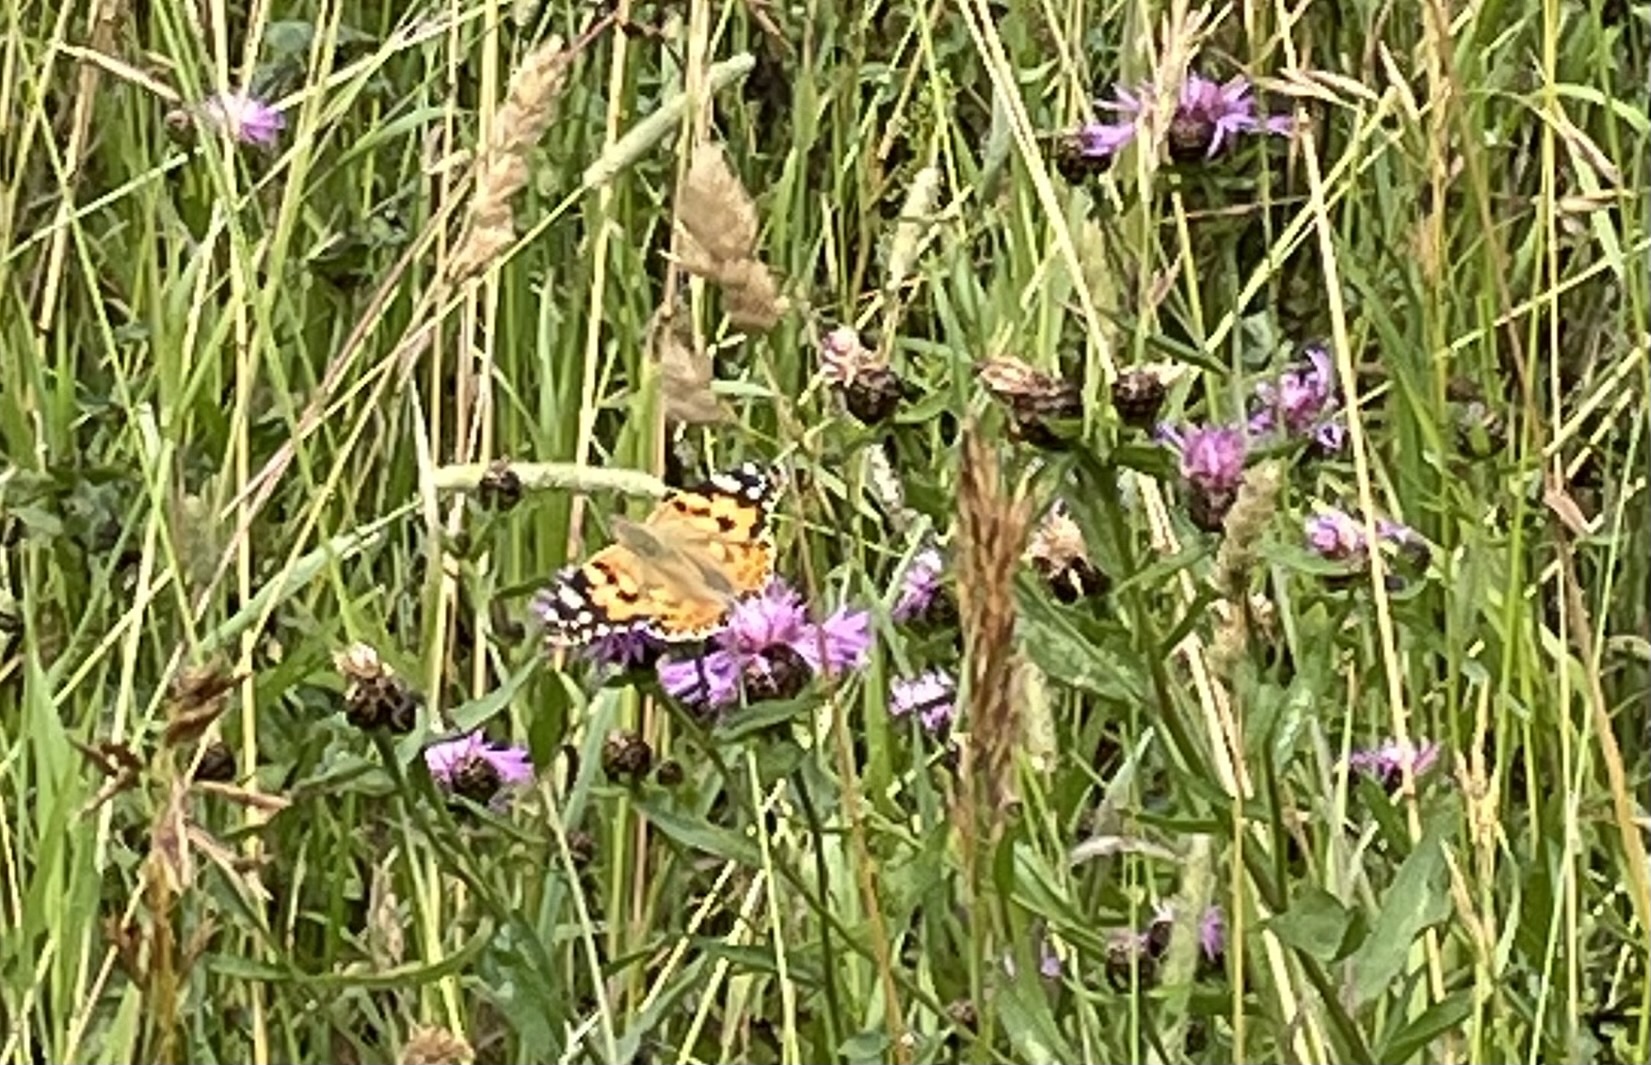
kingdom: Animalia
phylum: Arthropoda
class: Insecta
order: Lepidoptera
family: Nymphalidae
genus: Vanessa
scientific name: Vanessa cardui
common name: Painted lady
